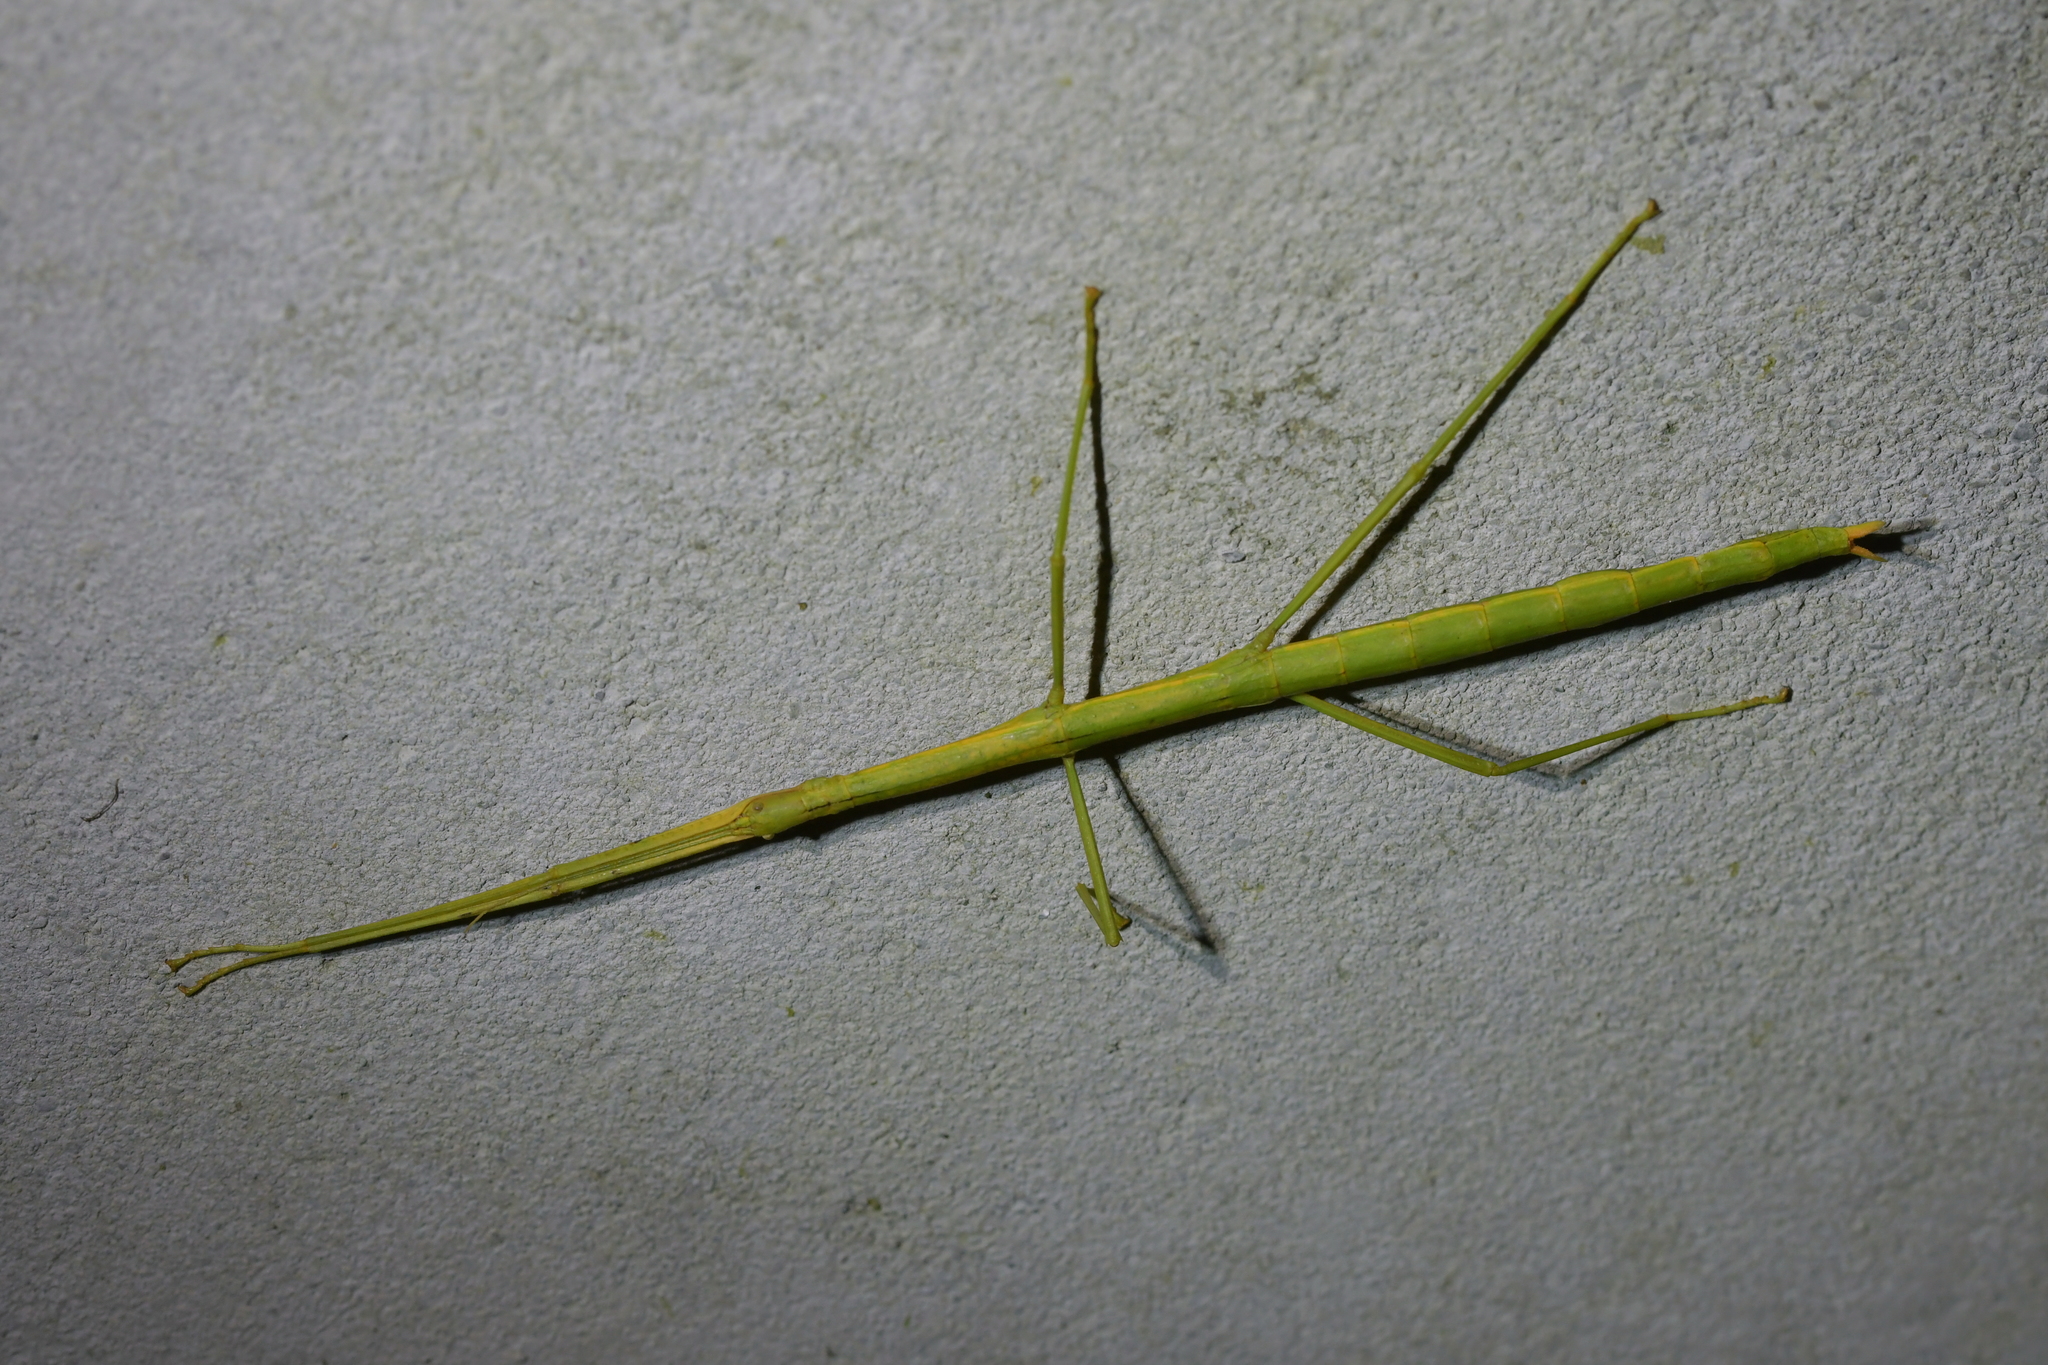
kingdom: Animalia
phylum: Arthropoda
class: Insecta
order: Phasmida
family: Phasmatidae
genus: Clitarchus
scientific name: Clitarchus hookeri
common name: Smooth stick insect
